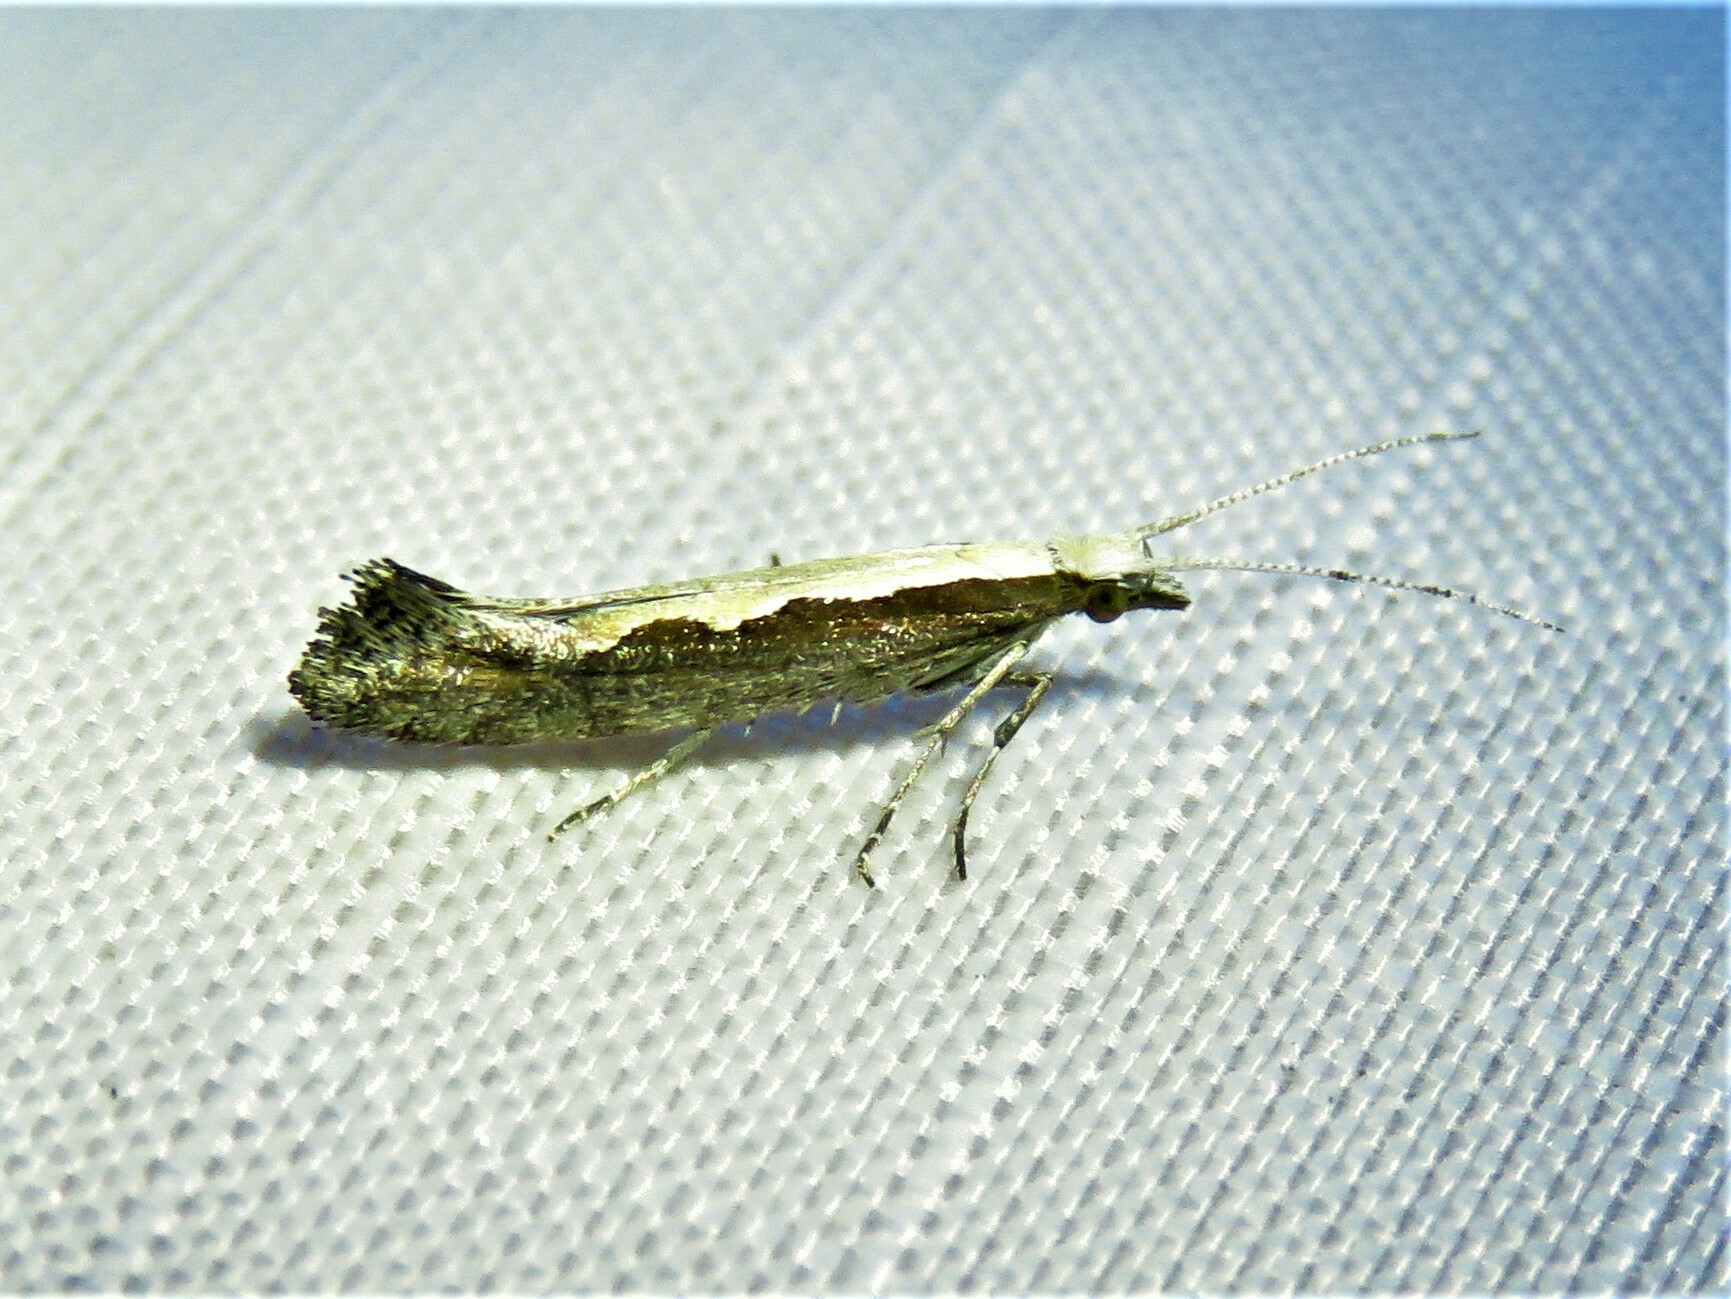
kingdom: Animalia
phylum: Arthropoda
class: Insecta
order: Lepidoptera
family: Plutellidae
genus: Plutella
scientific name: Plutella xylostella
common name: Diamond-back moth
